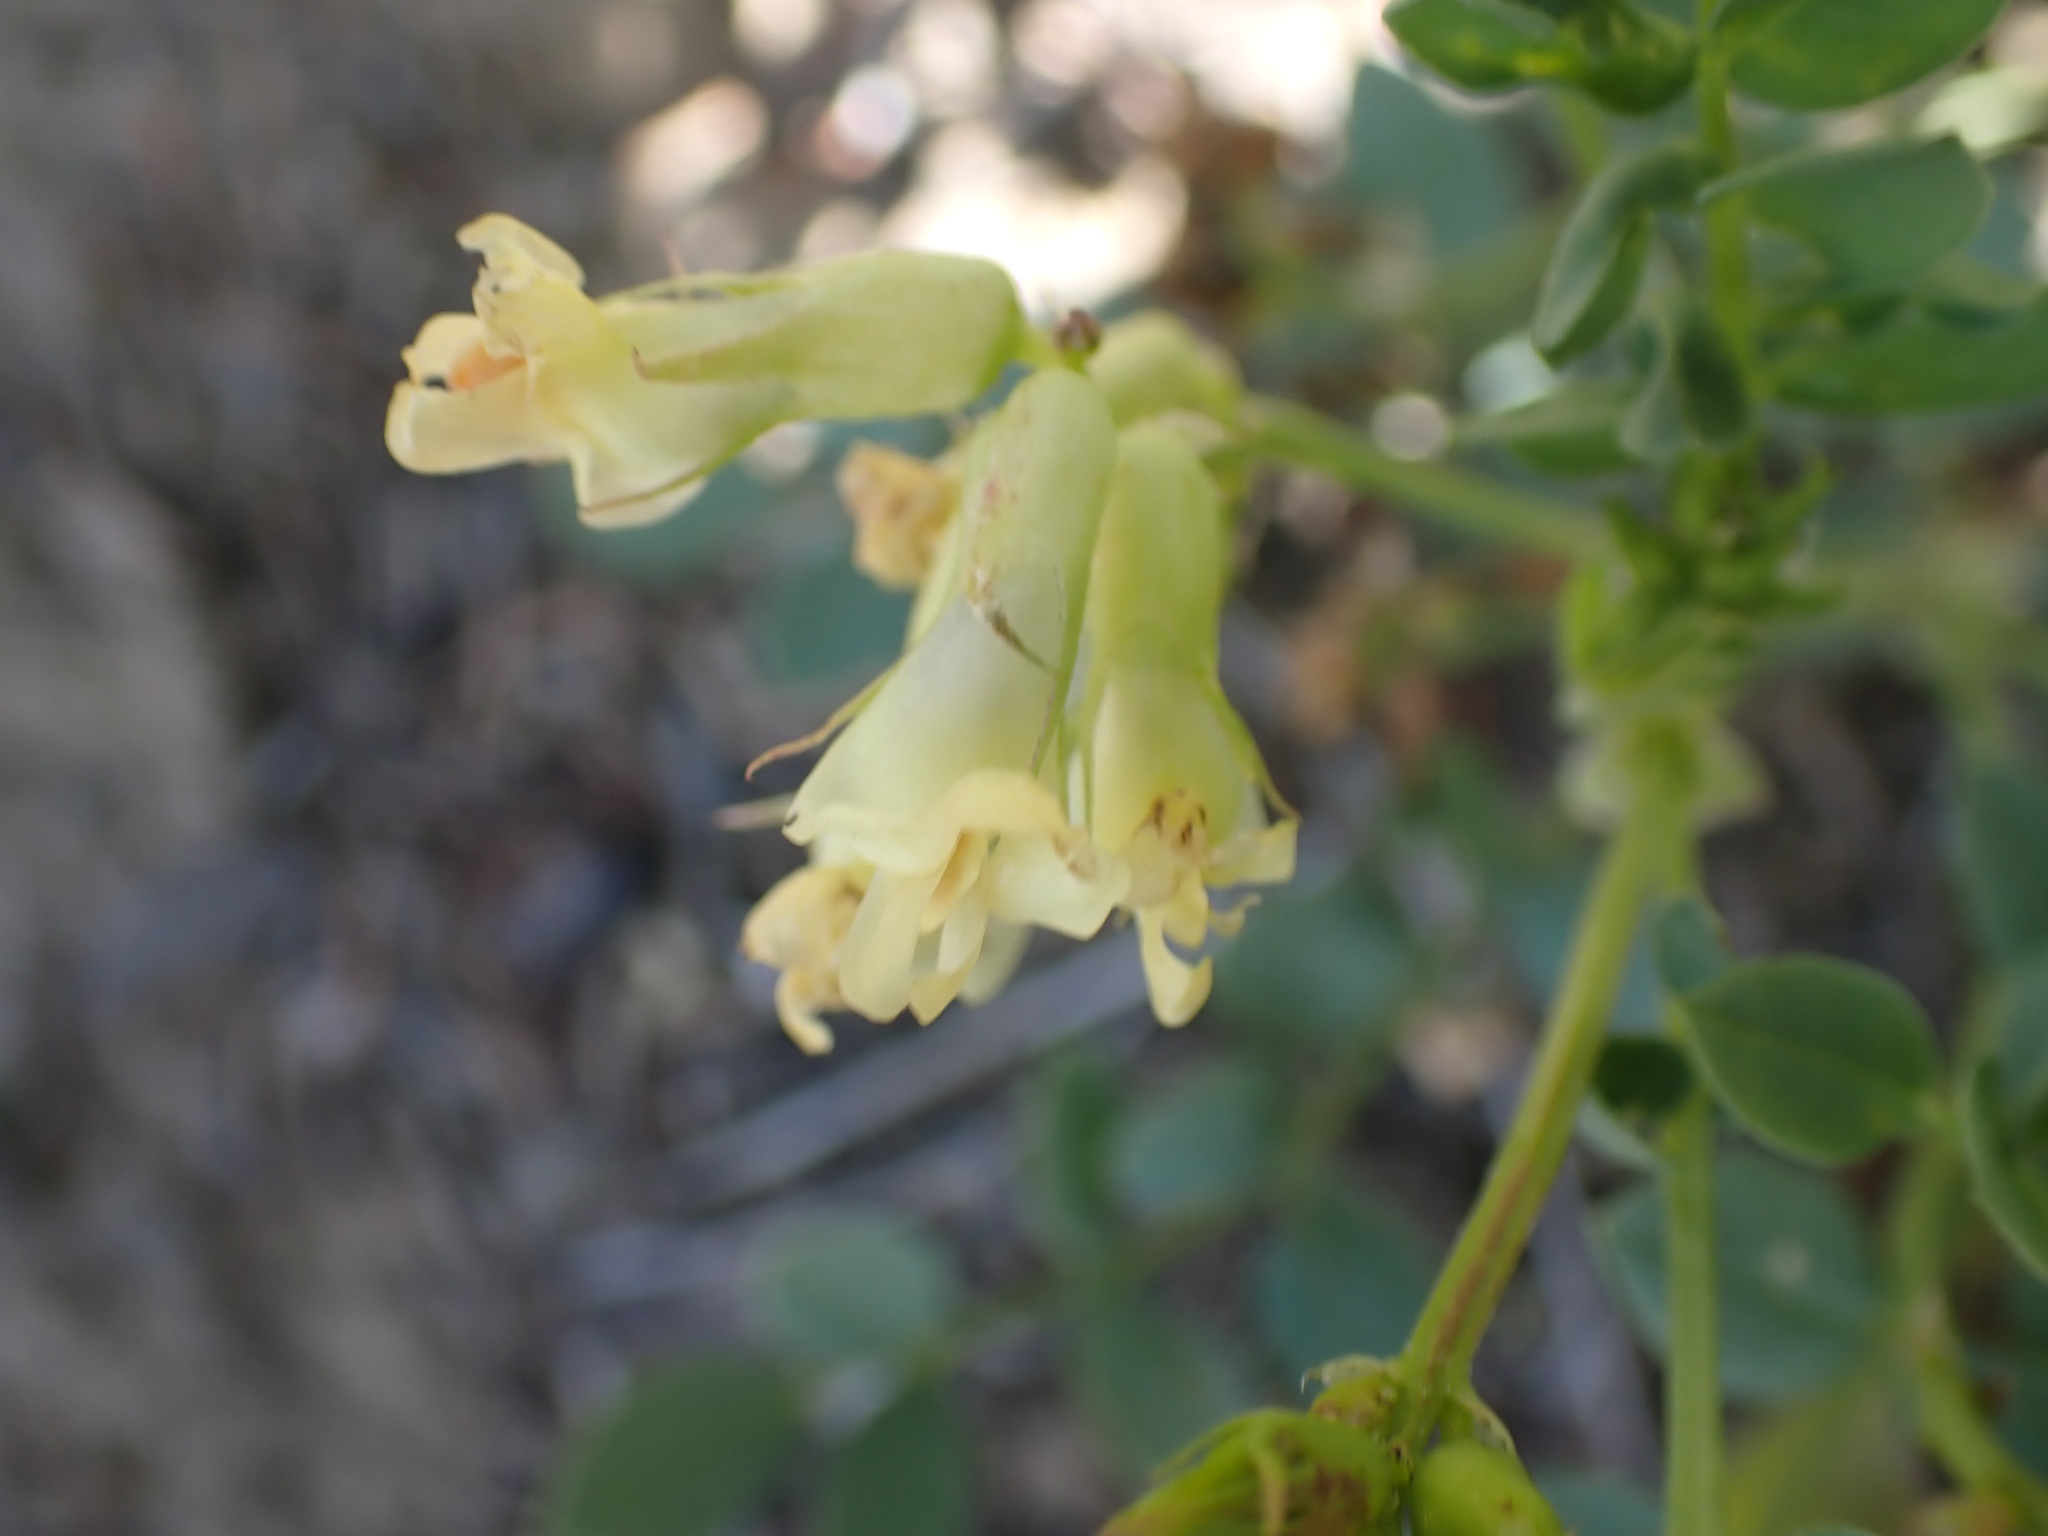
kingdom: Plantae
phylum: Tracheophyta
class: Magnoliopsida
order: Fabales
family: Fabaceae
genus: Astragalus
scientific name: Astragalus collinus
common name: Hill milk-vetch
